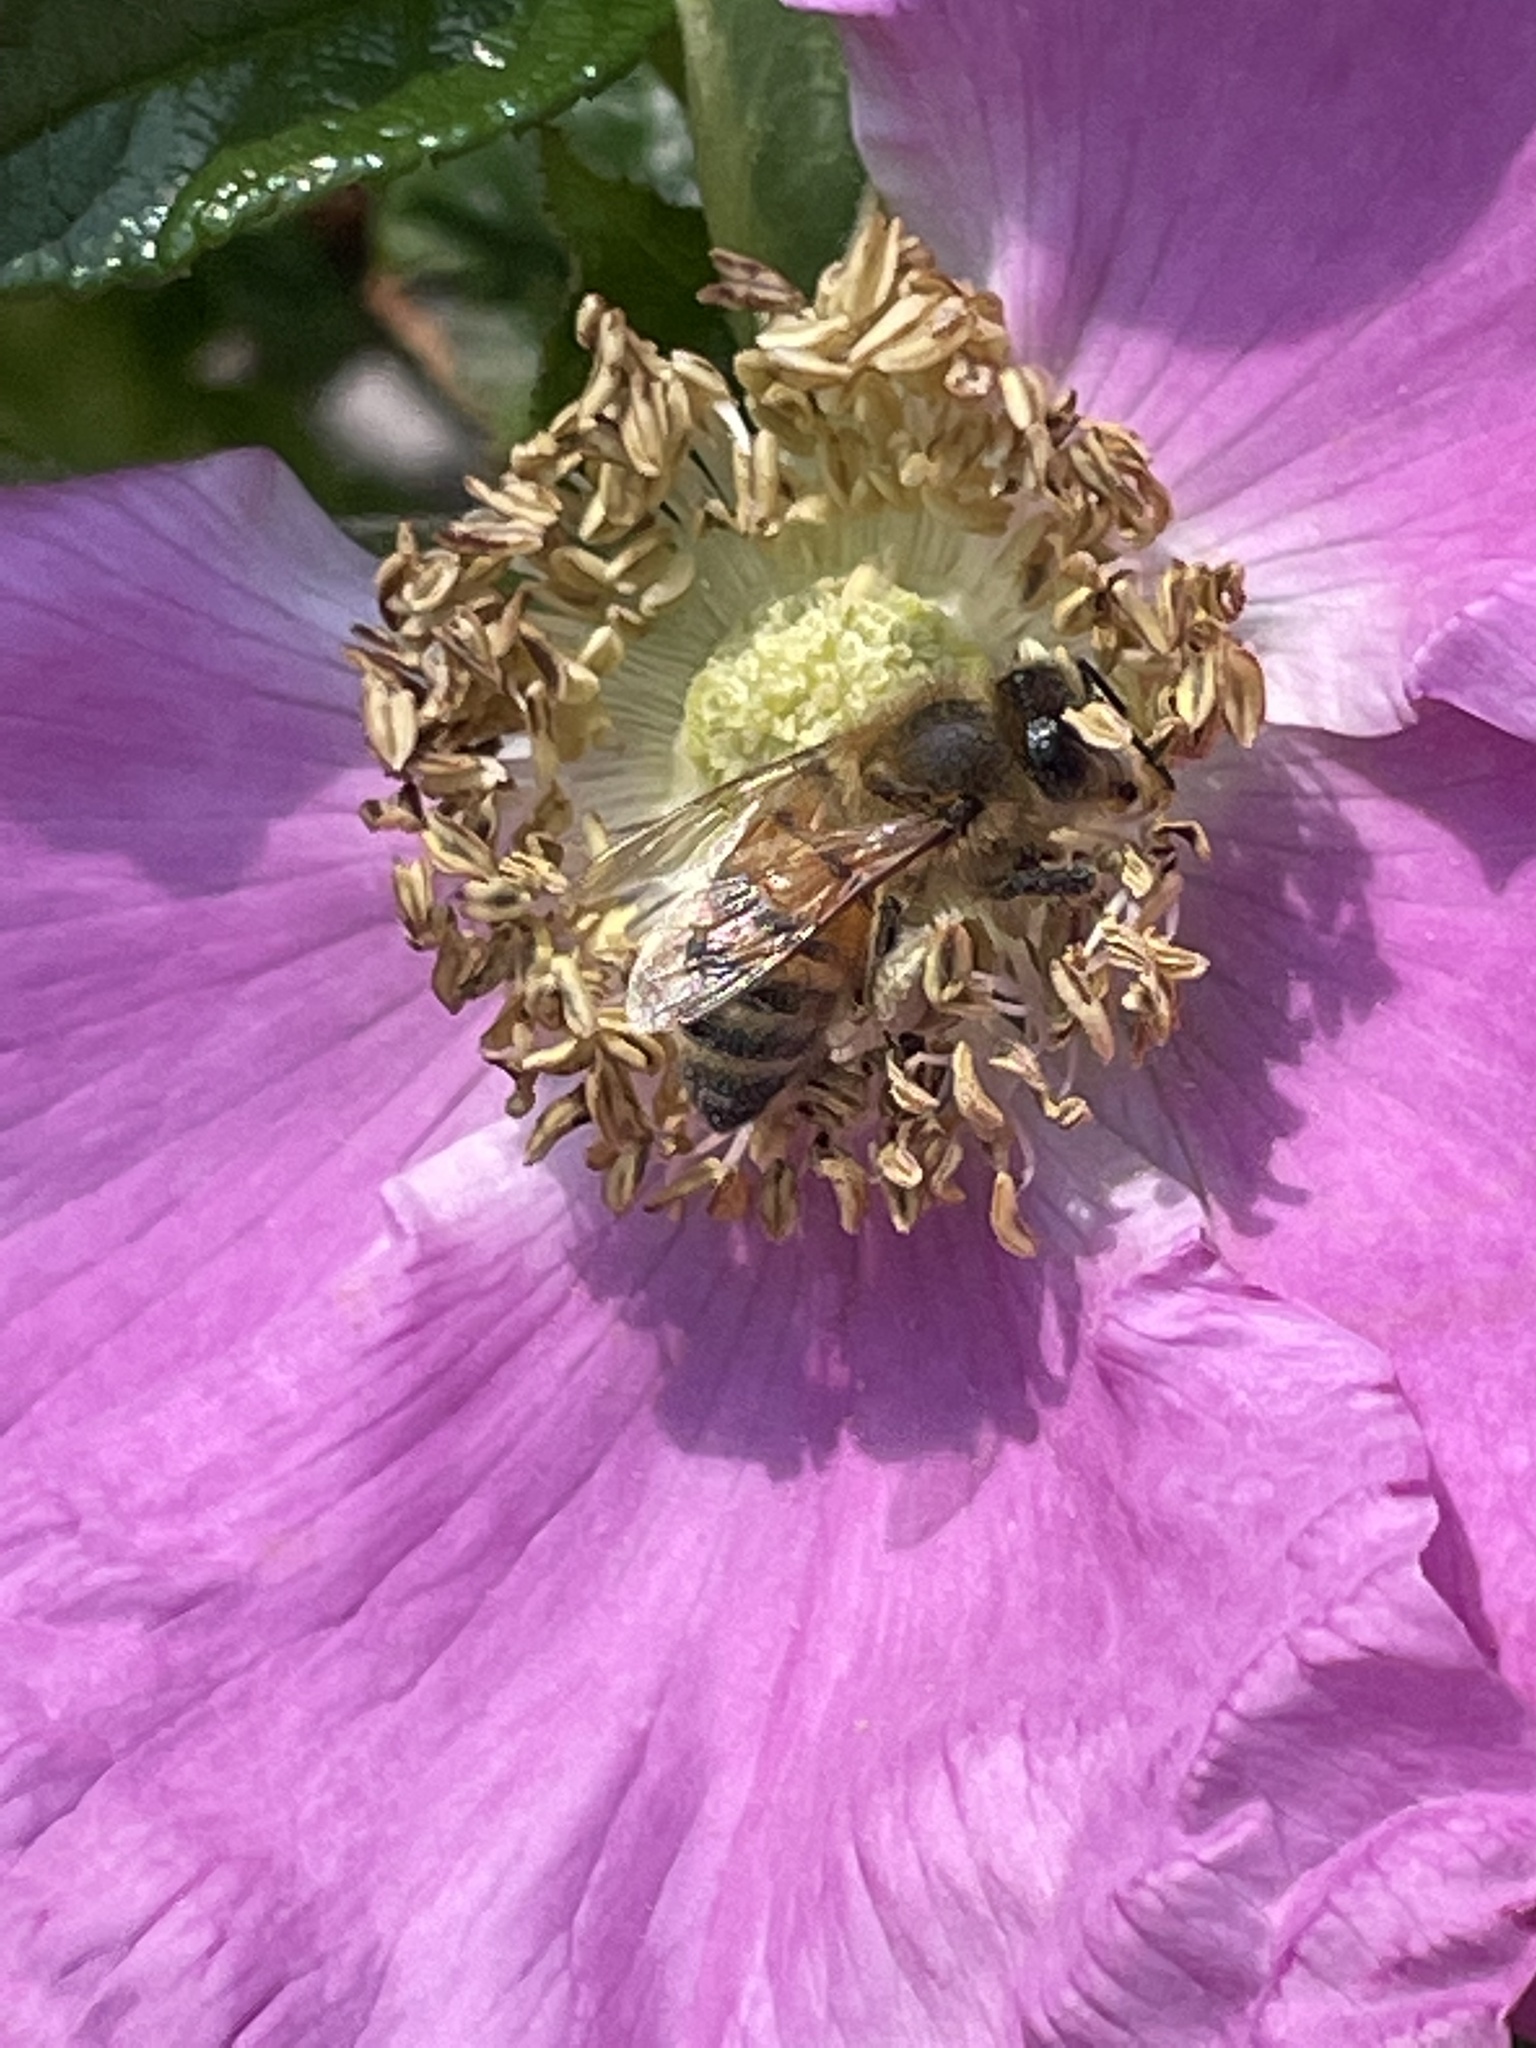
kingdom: Animalia
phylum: Arthropoda
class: Insecta
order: Hymenoptera
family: Apidae
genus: Apis
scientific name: Apis mellifera
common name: Honey bee
